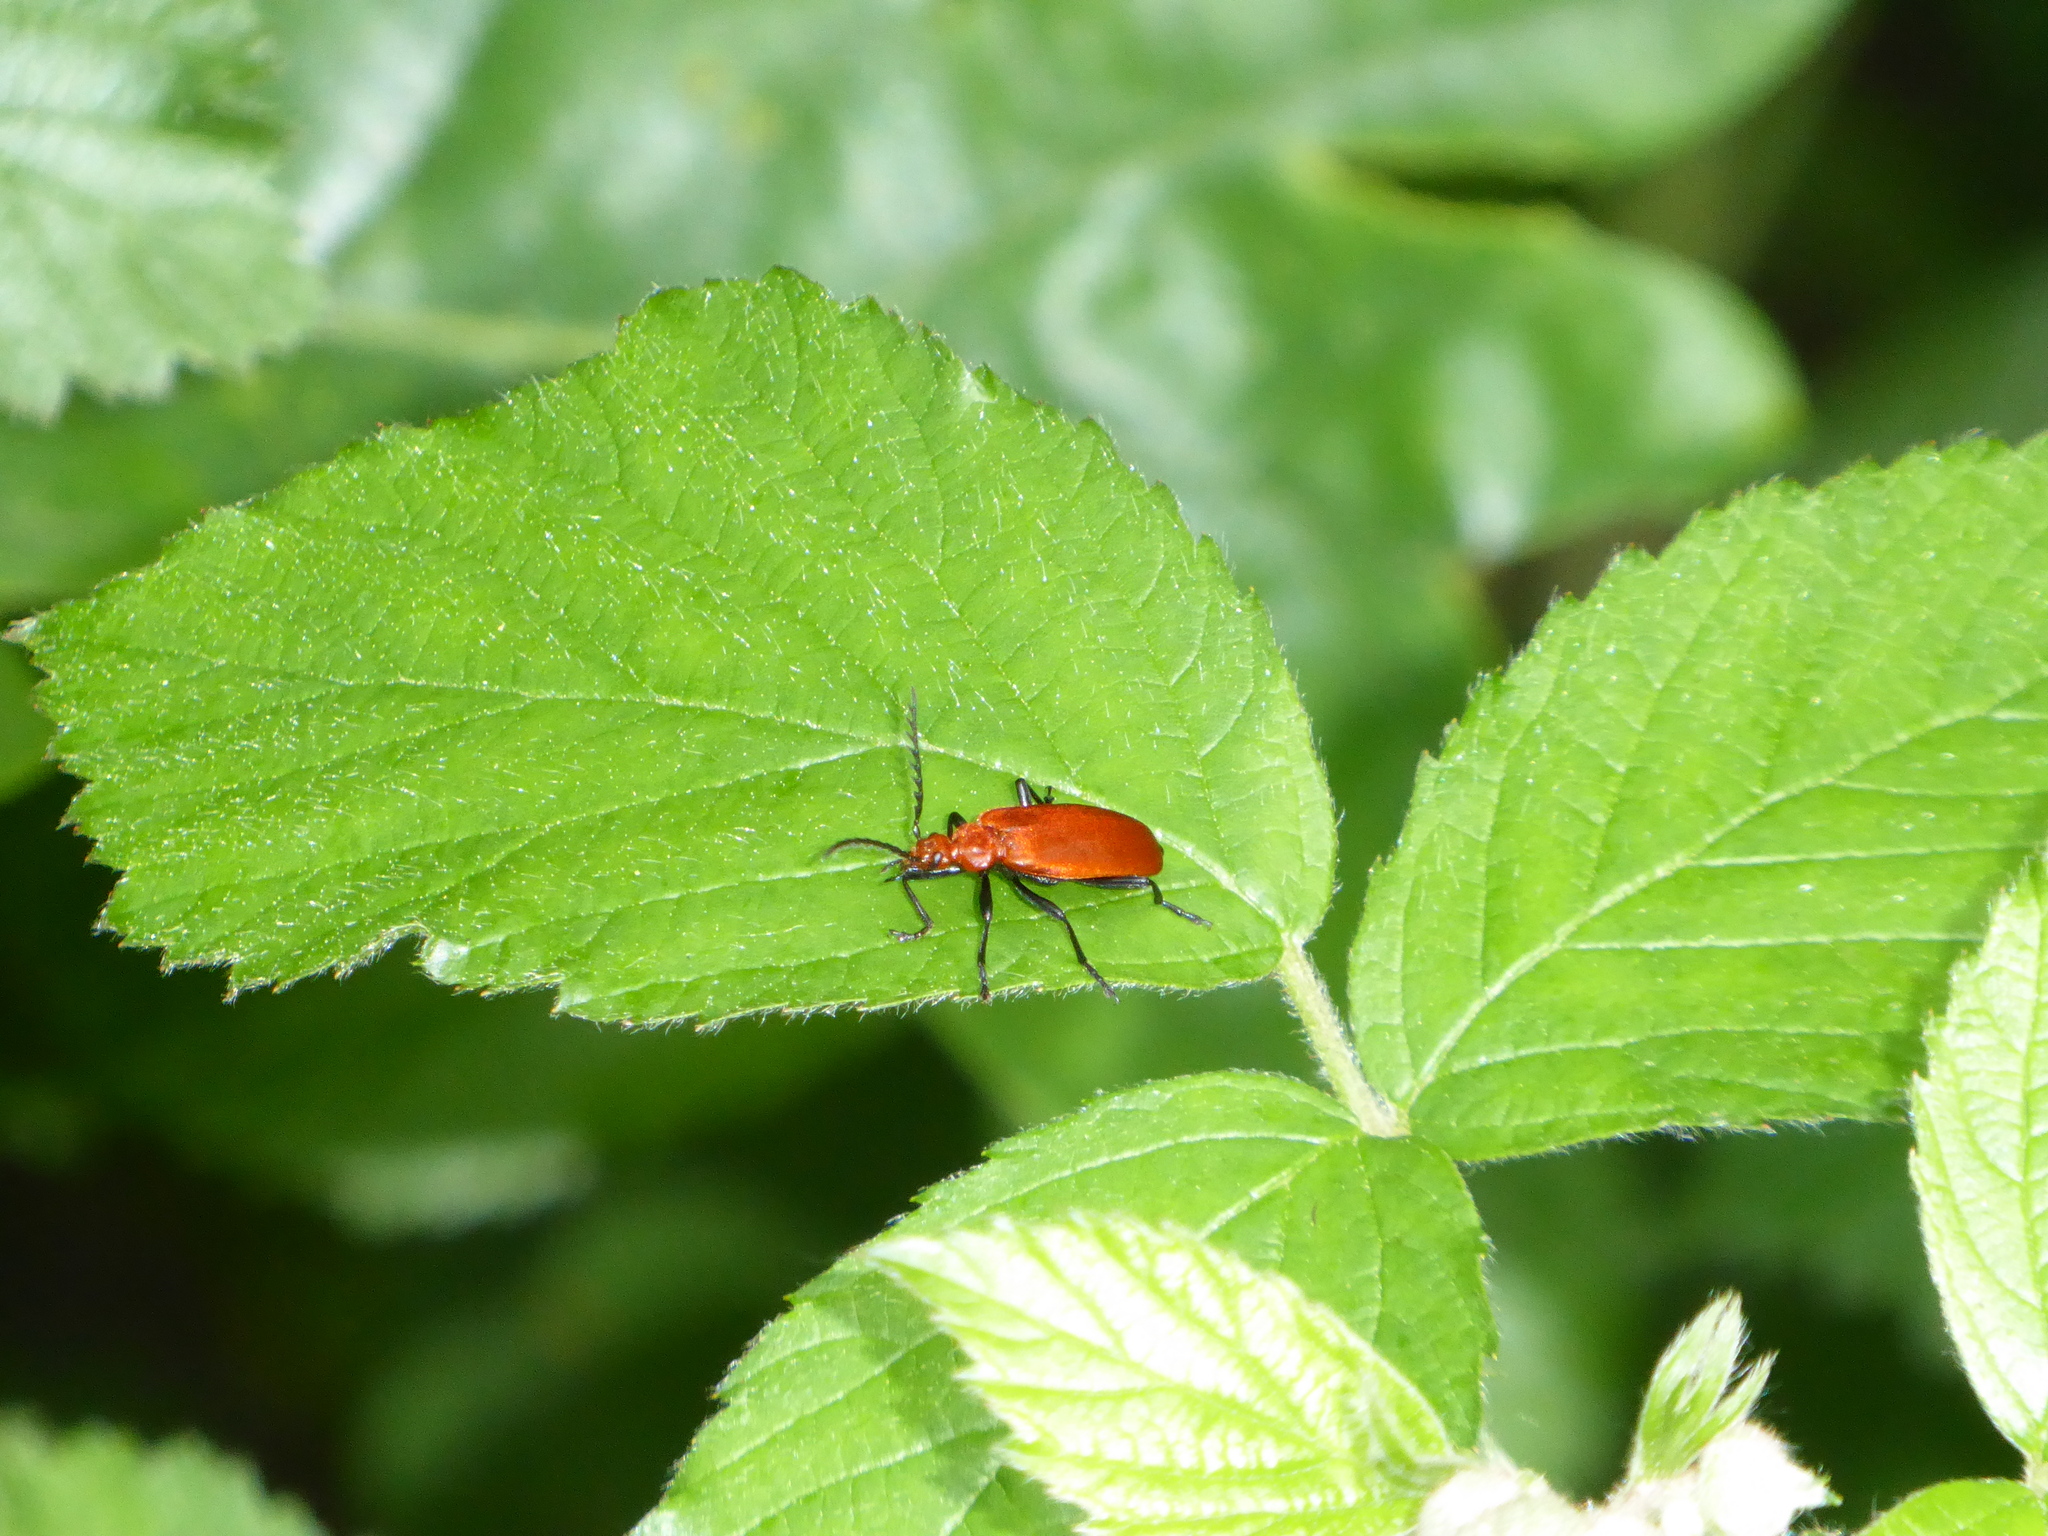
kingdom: Animalia
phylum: Arthropoda
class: Insecta
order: Coleoptera
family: Pyrochroidae
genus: Pyrochroa
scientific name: Pyrochroa serraticornis
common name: Red-headed cardinal beetle
